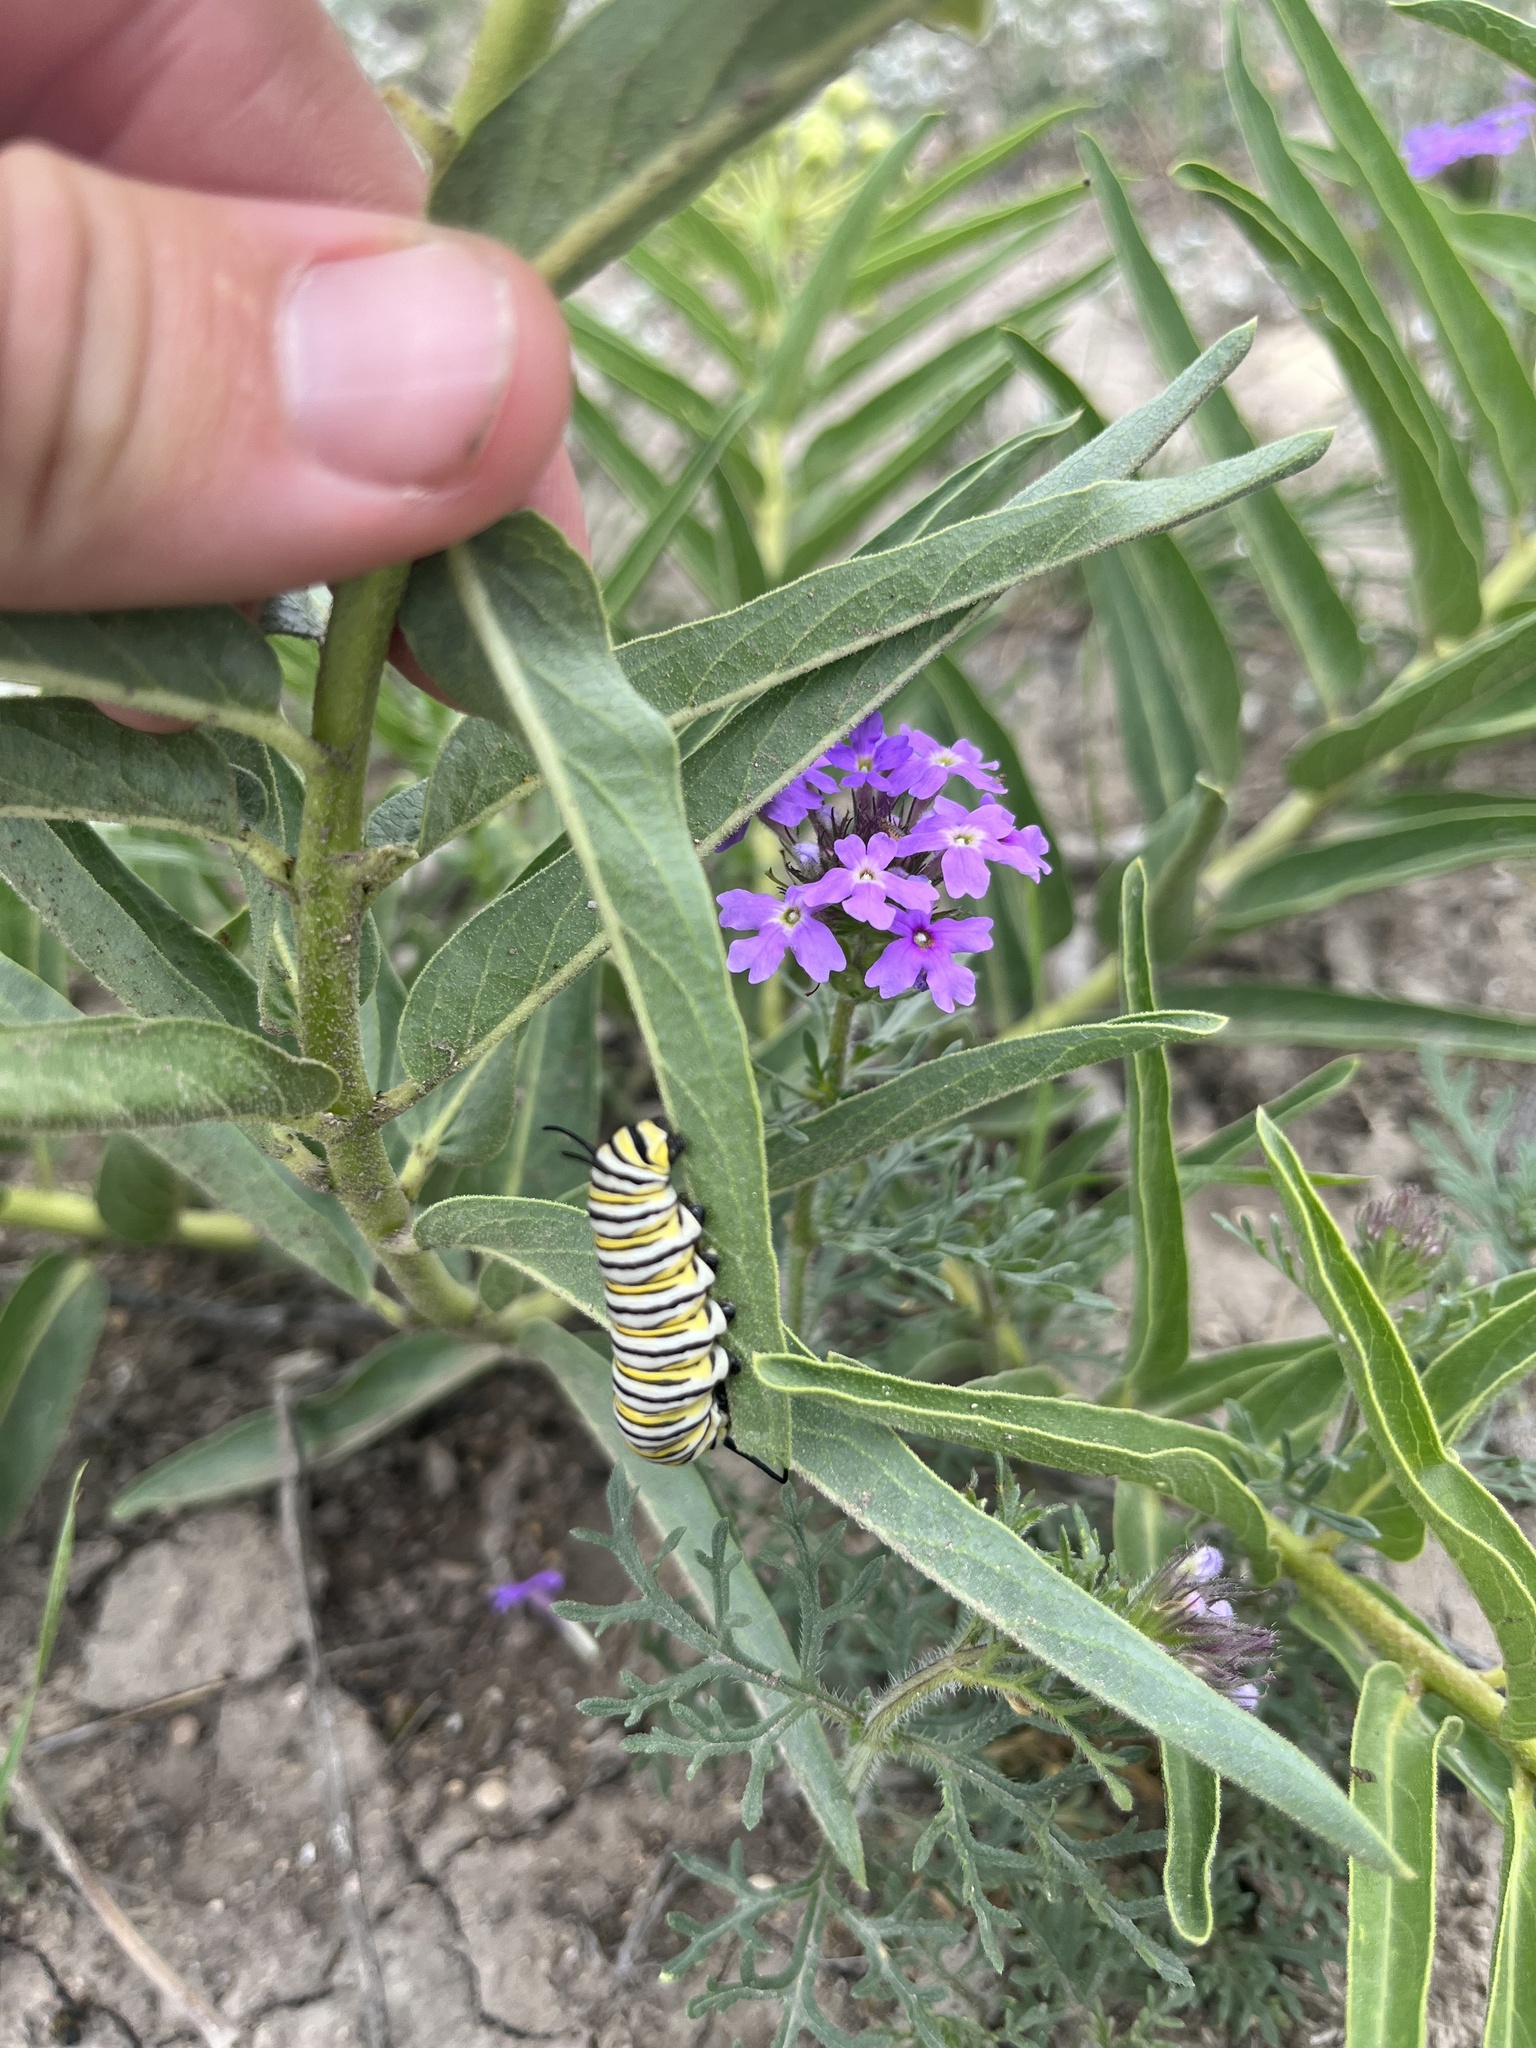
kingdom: Animalia
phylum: Arthropoda
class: Insecta
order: Lepidoptera
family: Nymphalidae
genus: Danaus
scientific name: Danaus plexippus
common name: Monarch
